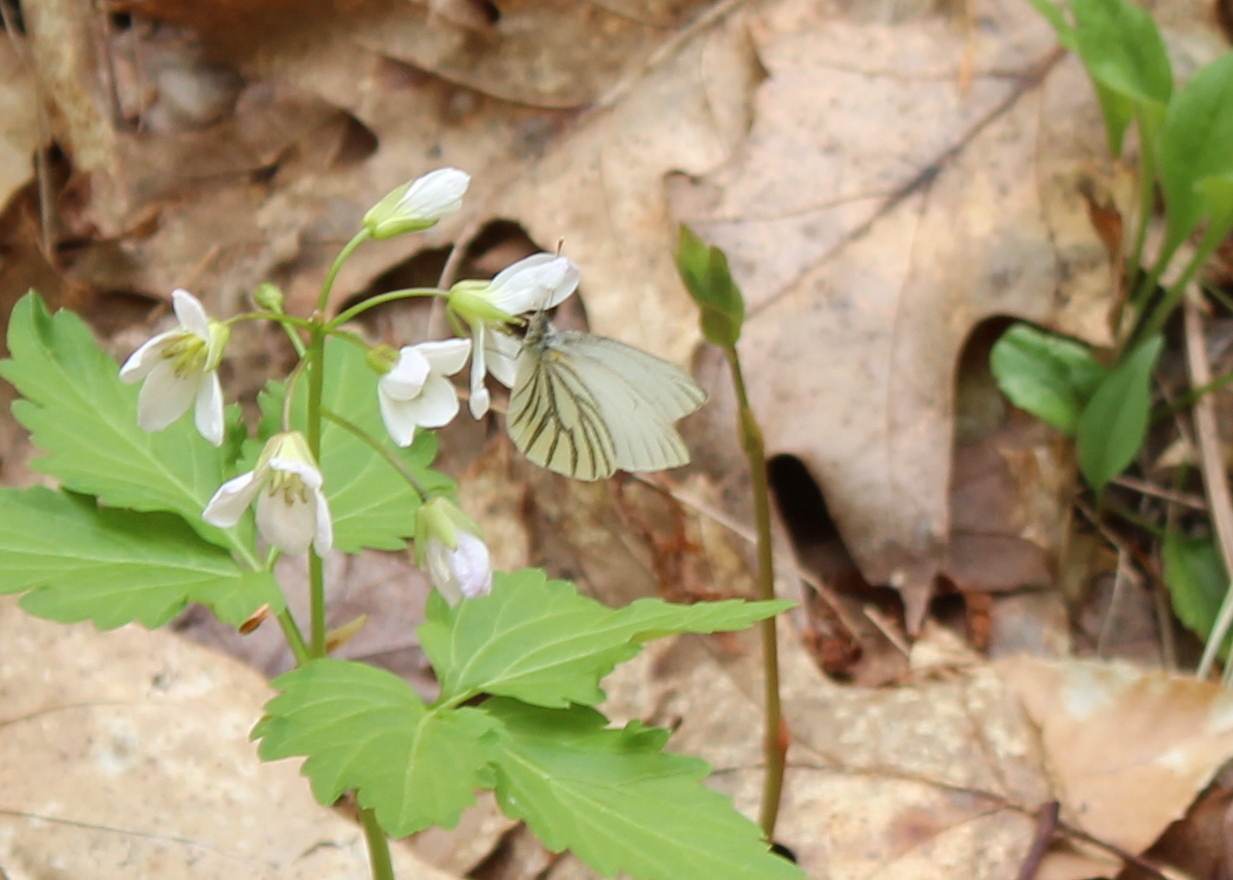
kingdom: Animalia
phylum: Arthropoda
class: Insecta
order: Lepidoptera
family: Pieridae
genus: Pieris
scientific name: Pieris oleracea
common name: Mustard white
